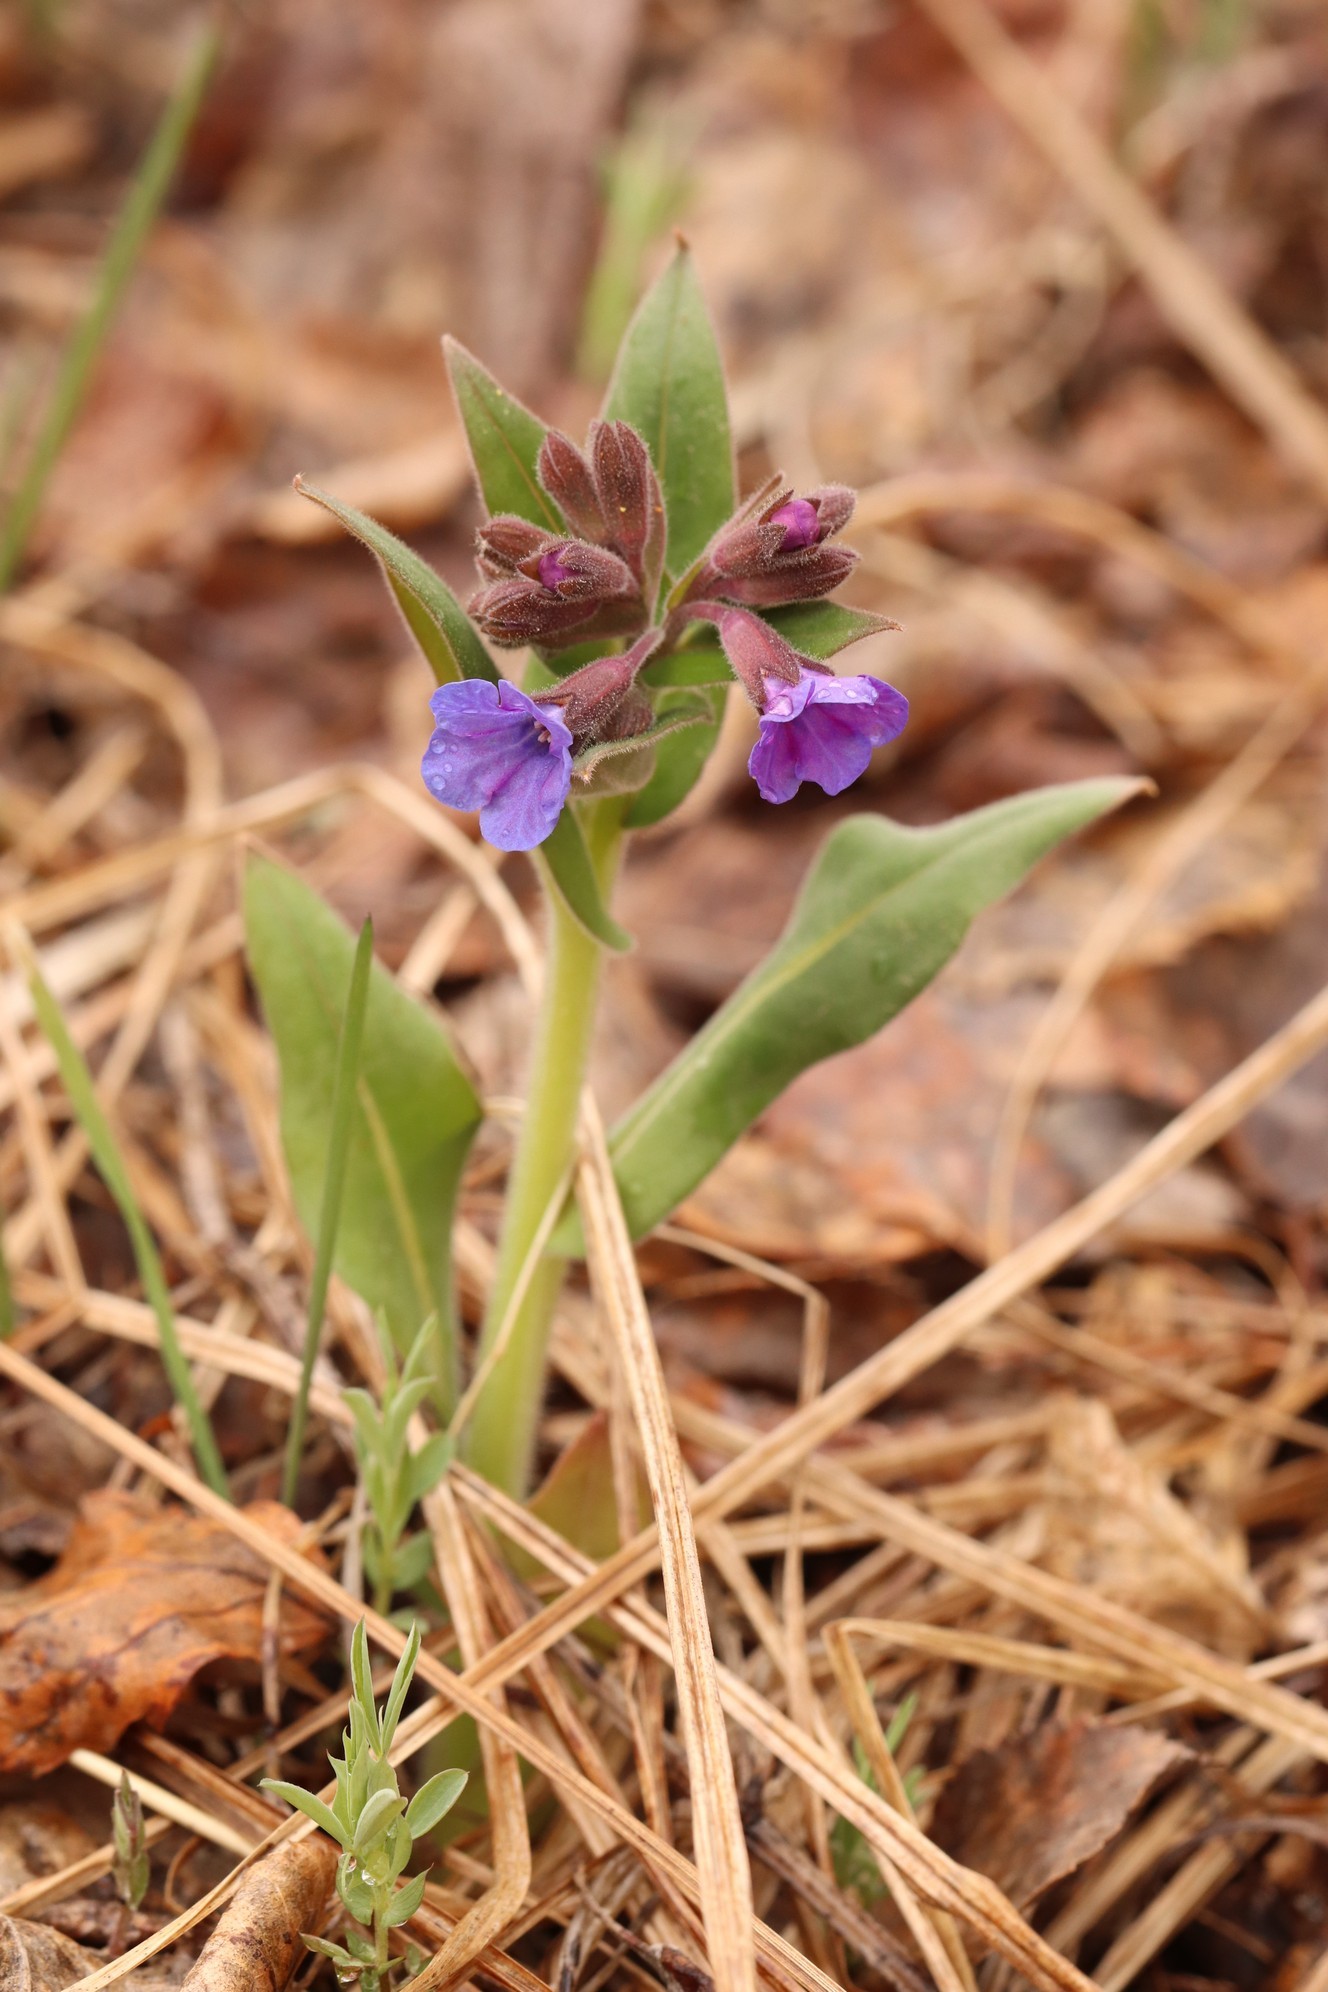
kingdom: Plantae
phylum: Tracheophyta
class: Magnoliopsida
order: Boraginales
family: Boraginaceae
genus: Pulmonaria
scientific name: Pulmonaria mollis
